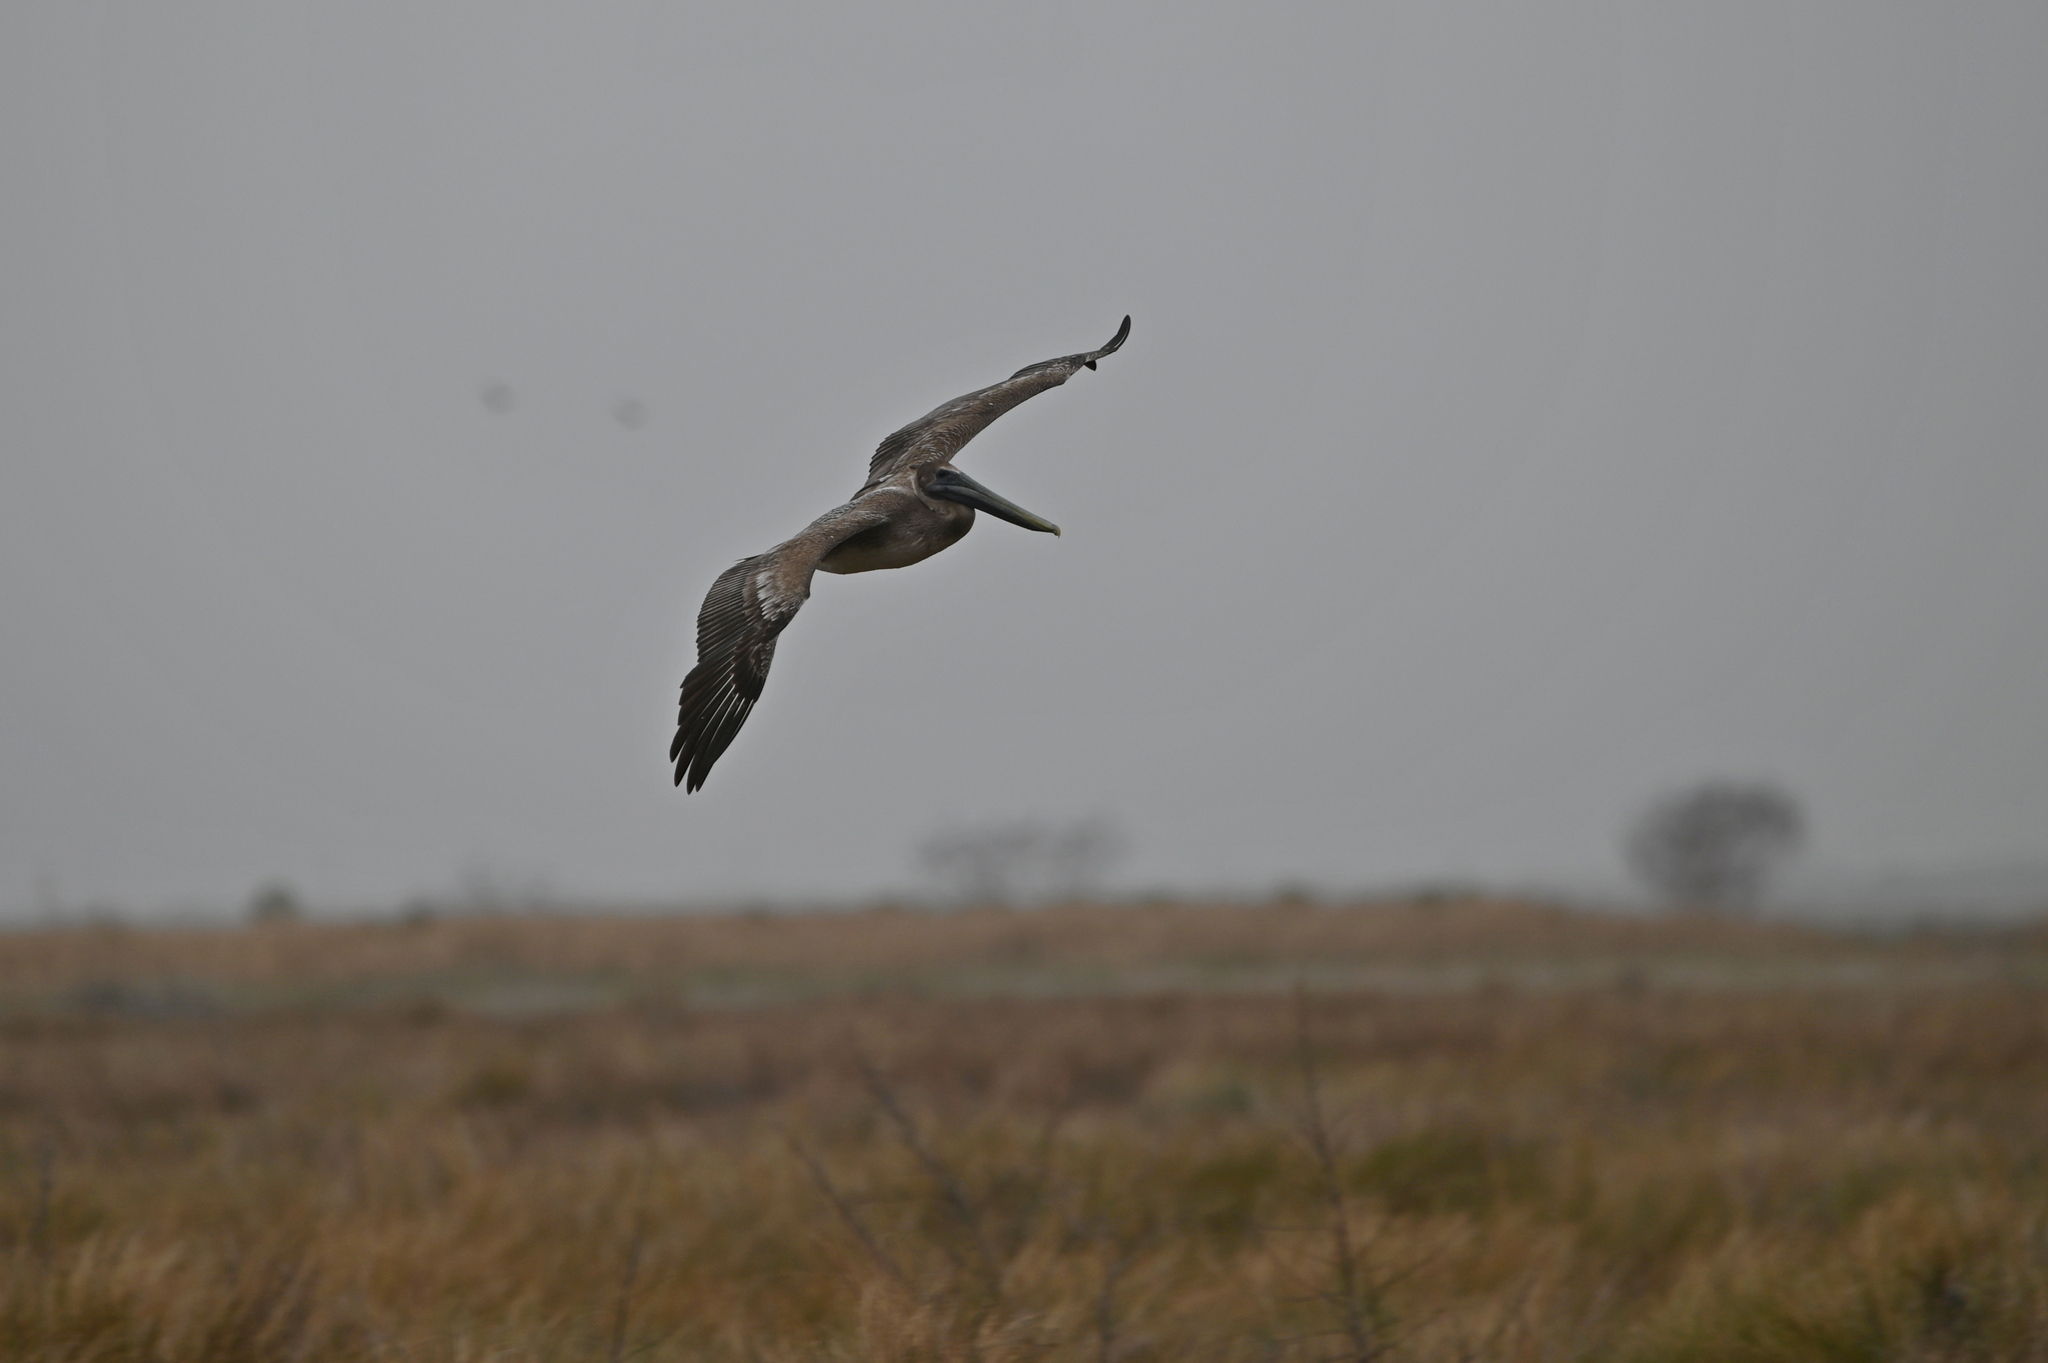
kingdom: Animalia
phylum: Chordata
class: Aves
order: Pelecaniformes
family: Pelecanidae
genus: Pelecanus
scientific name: Pelecanus occidentalis
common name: Brown pelican
